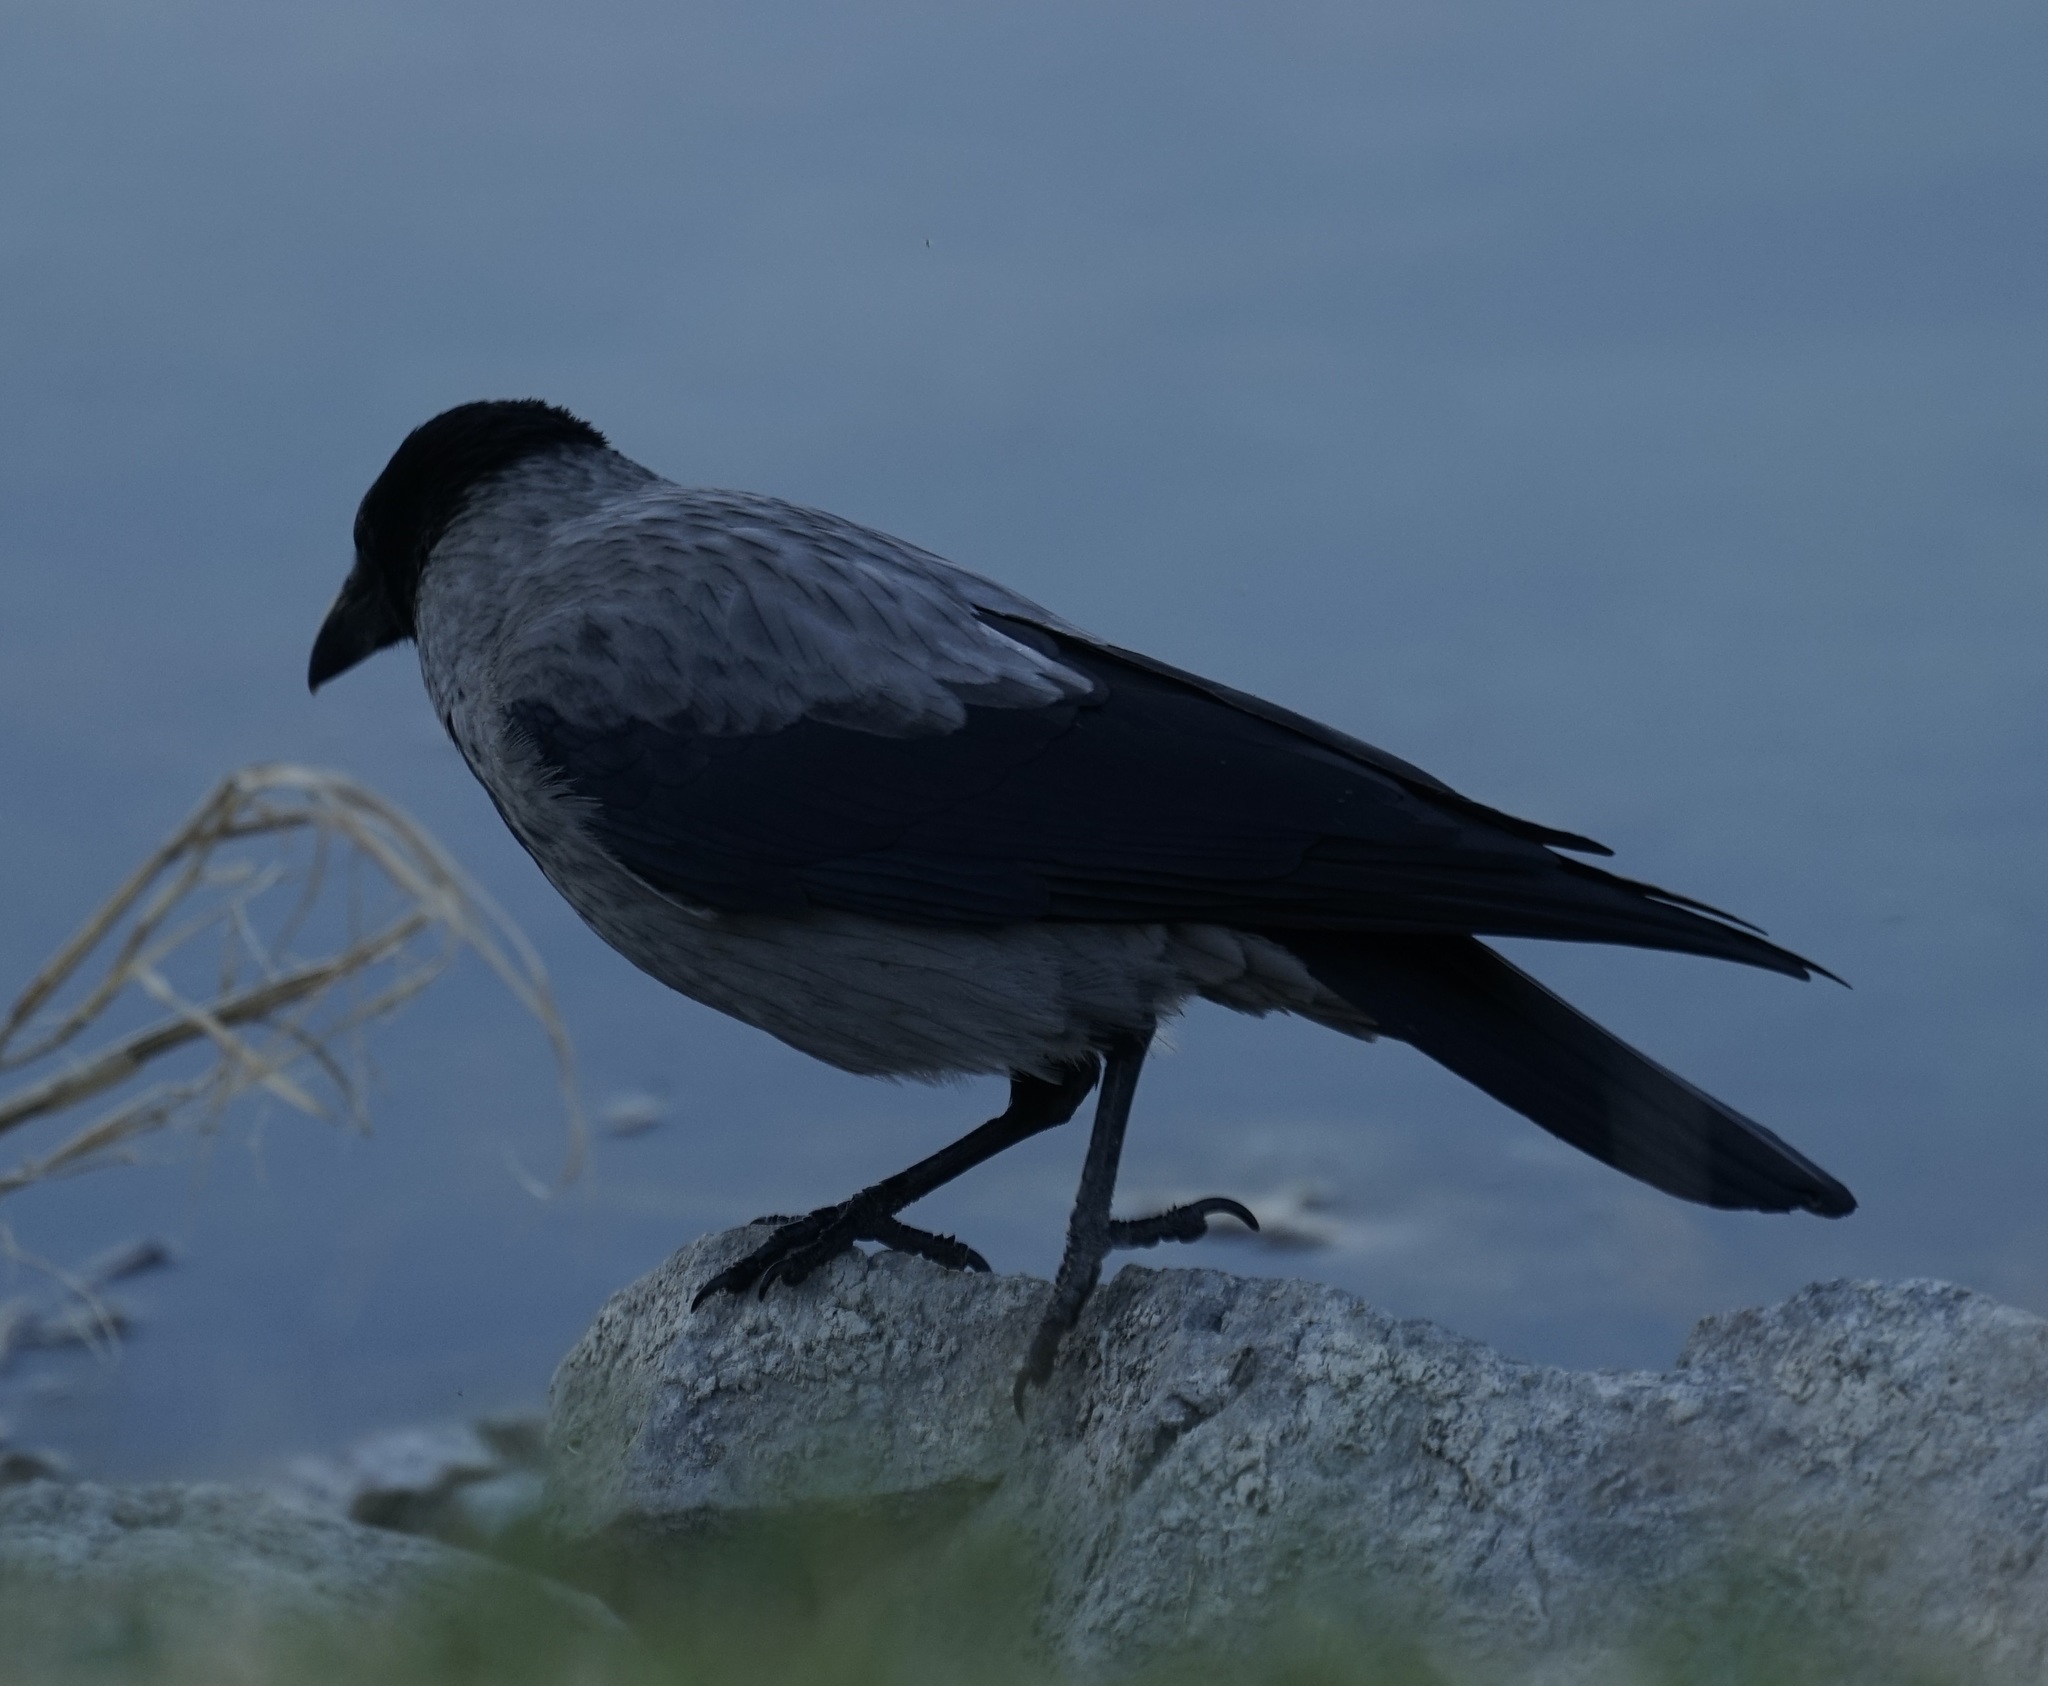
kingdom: Animalia
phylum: Chordata
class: Aves
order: Passeriformes
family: Corvidae
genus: Corvus
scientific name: Corvus cornix
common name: Hooded crow
